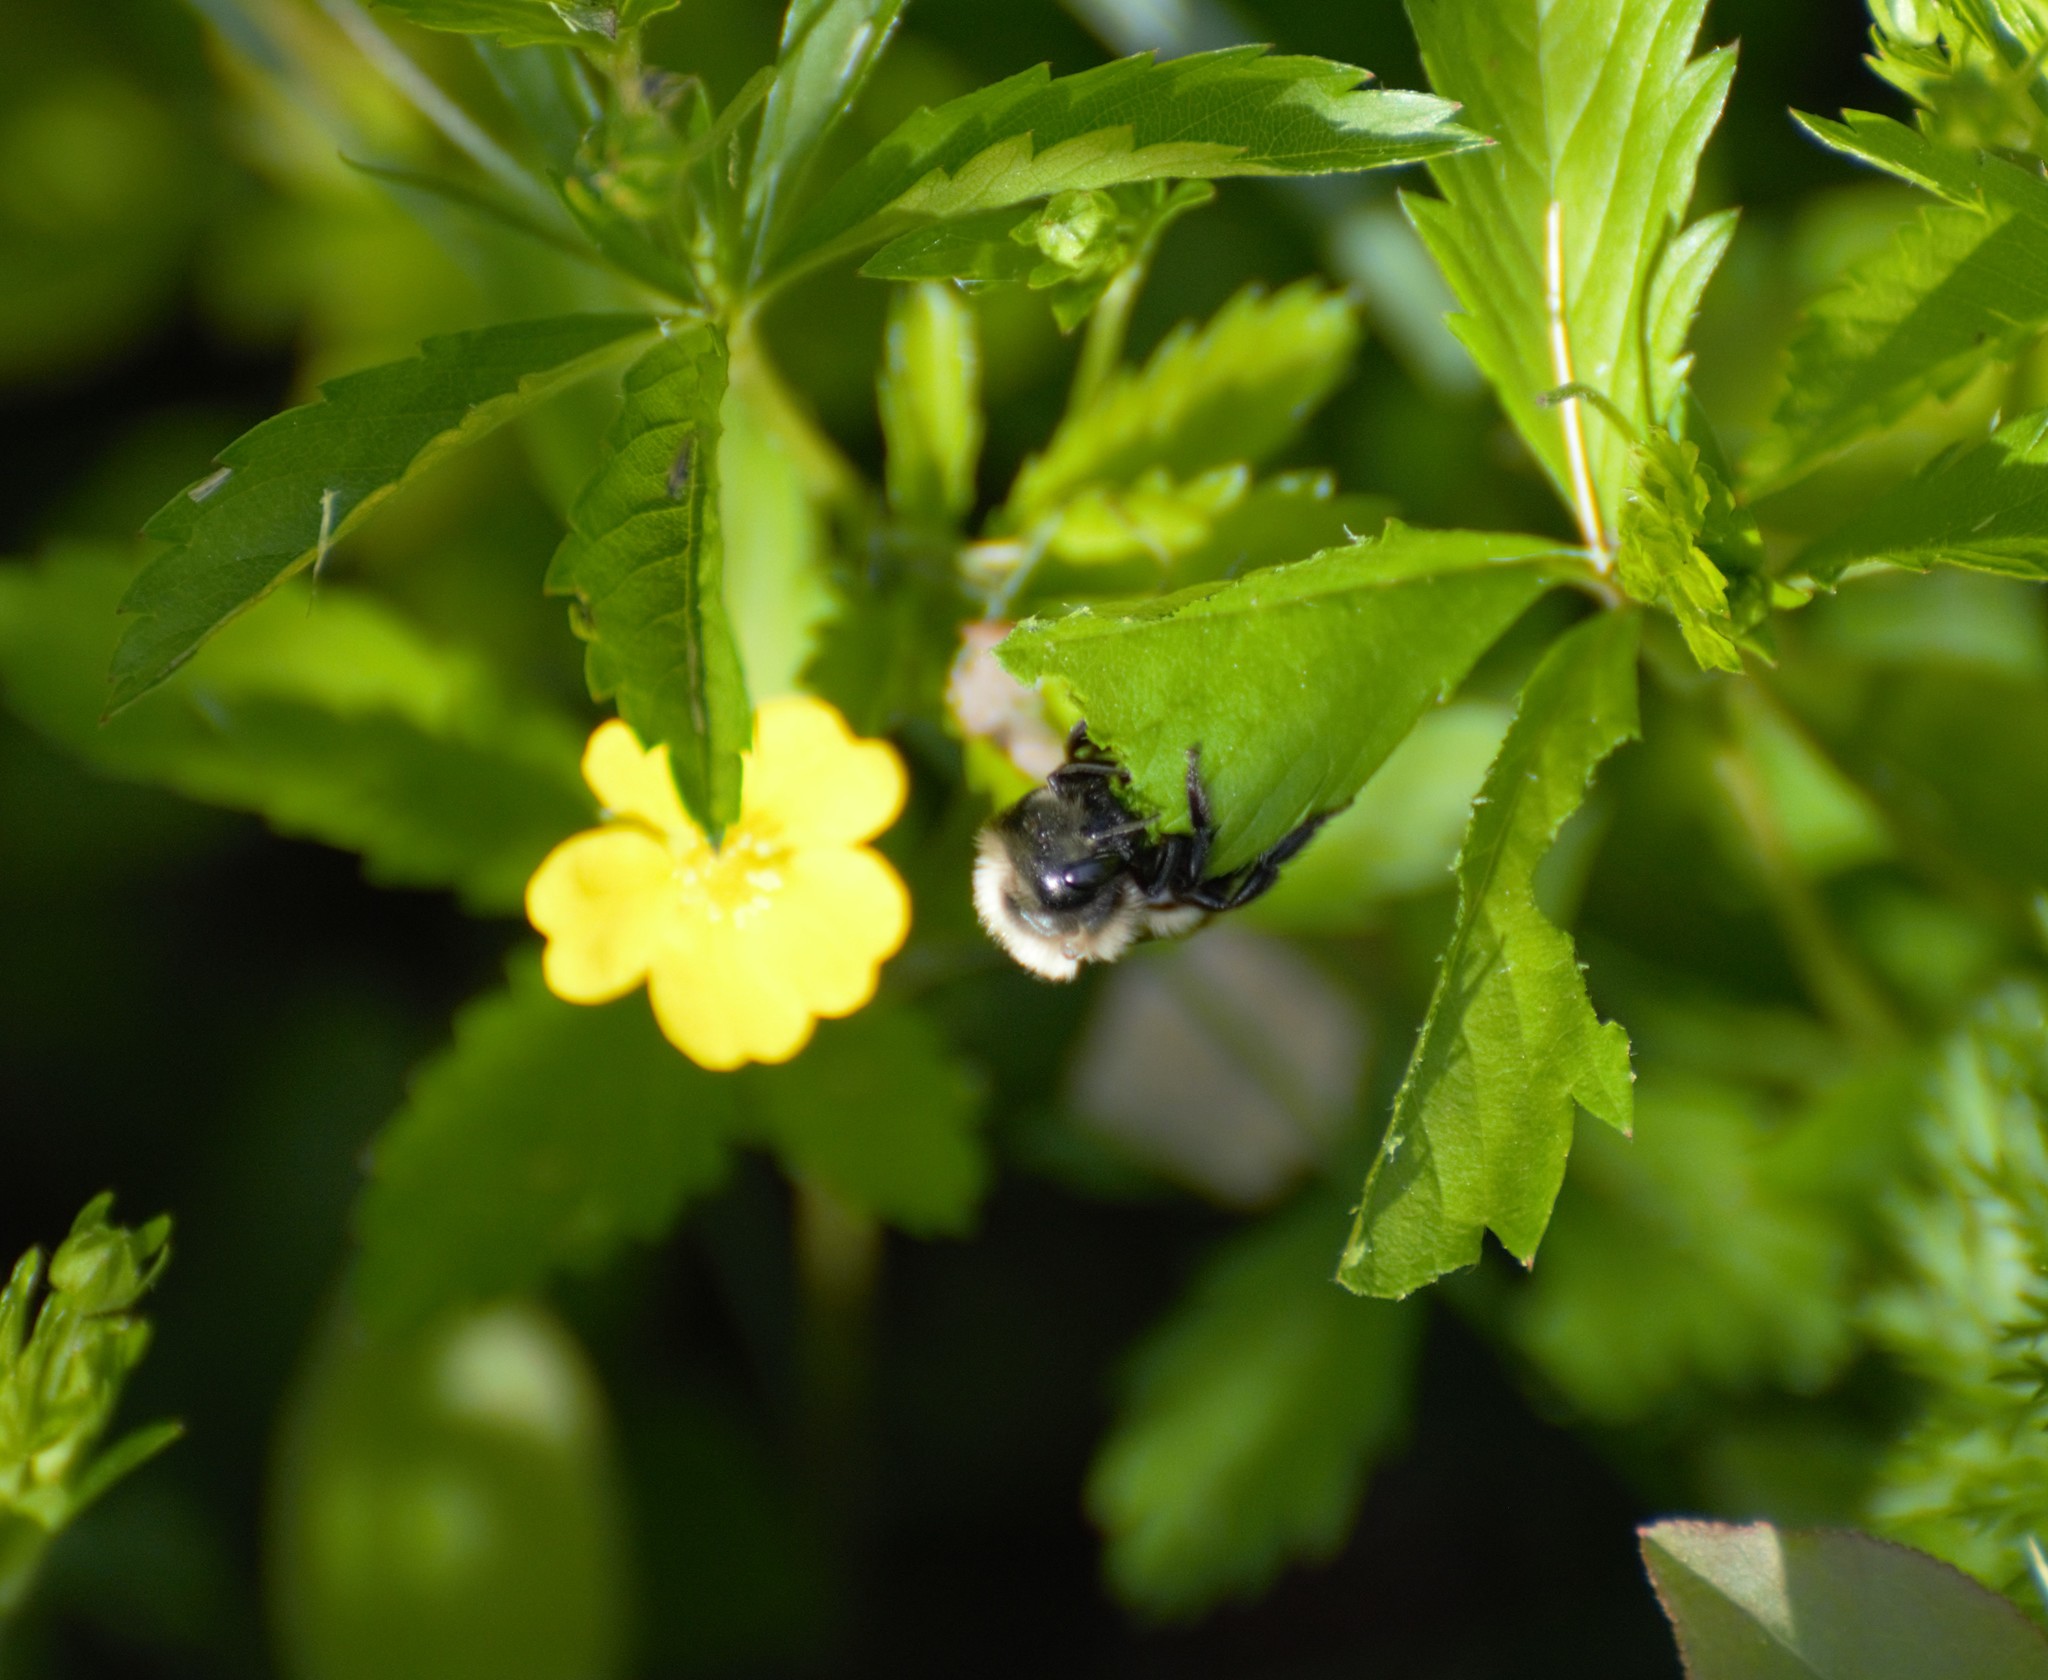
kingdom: Animalia
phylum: Arthropoda
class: Insecta
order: Hymenoptera
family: Megachilidae
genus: Osmia
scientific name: Osmia bucephala
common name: Bufflehead mason bee
